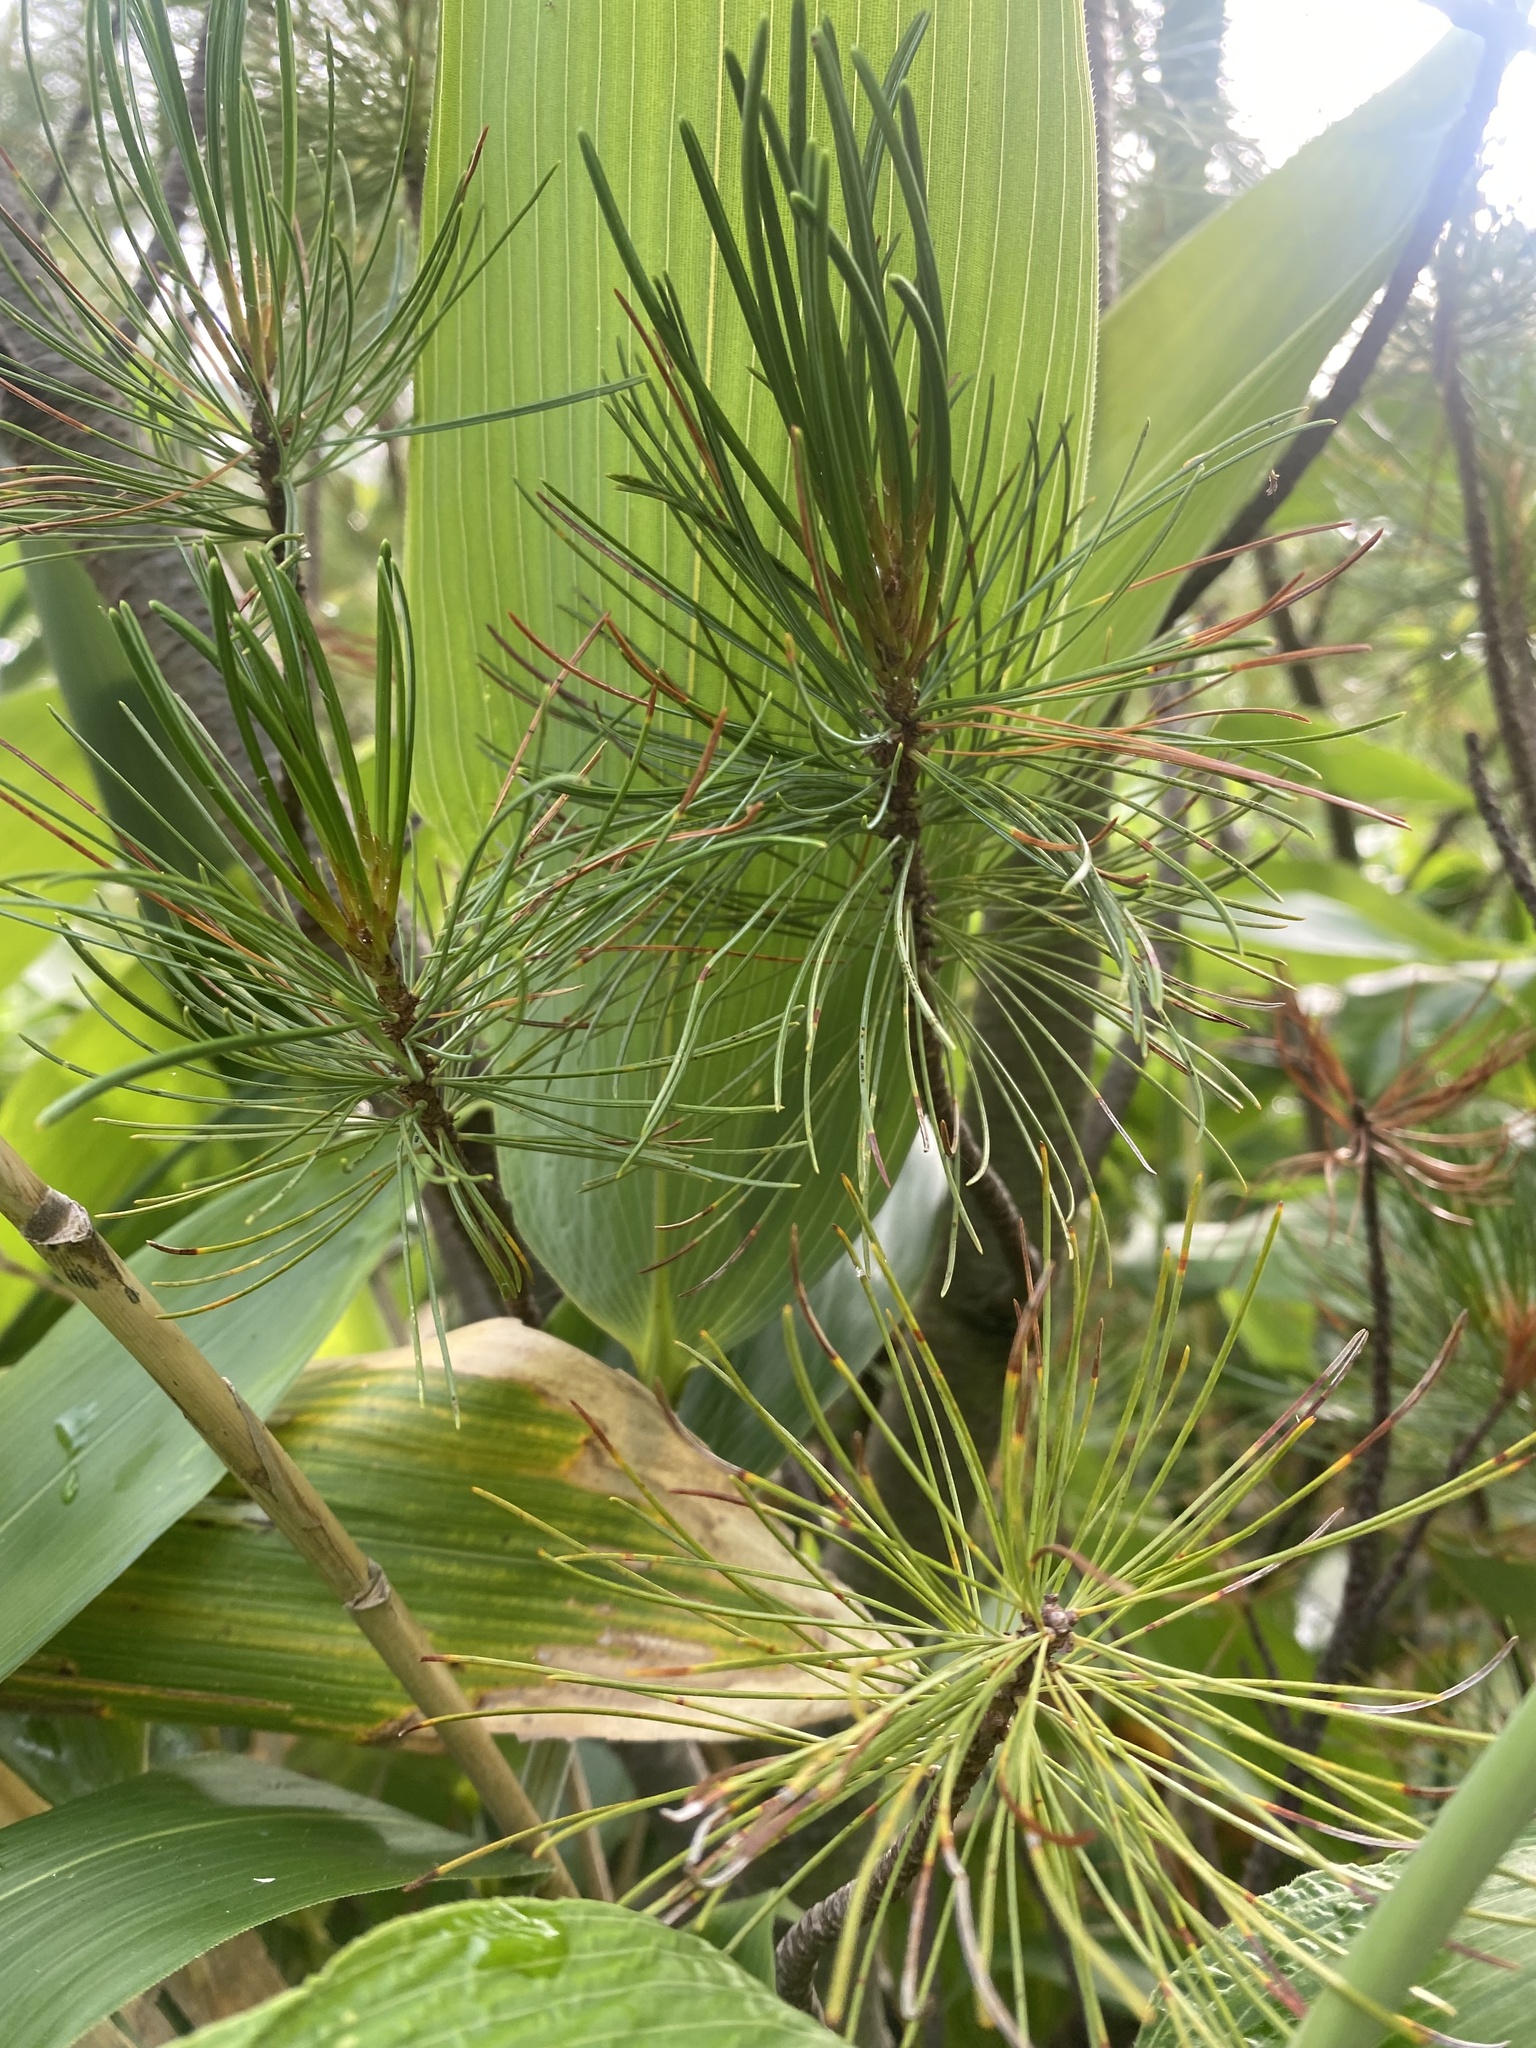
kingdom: Plantae
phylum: Tracheophyta
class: Pinopsida
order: Pinales
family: Pinaceae
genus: Pinus
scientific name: Pinus pumila
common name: Dwarf siberian pine
